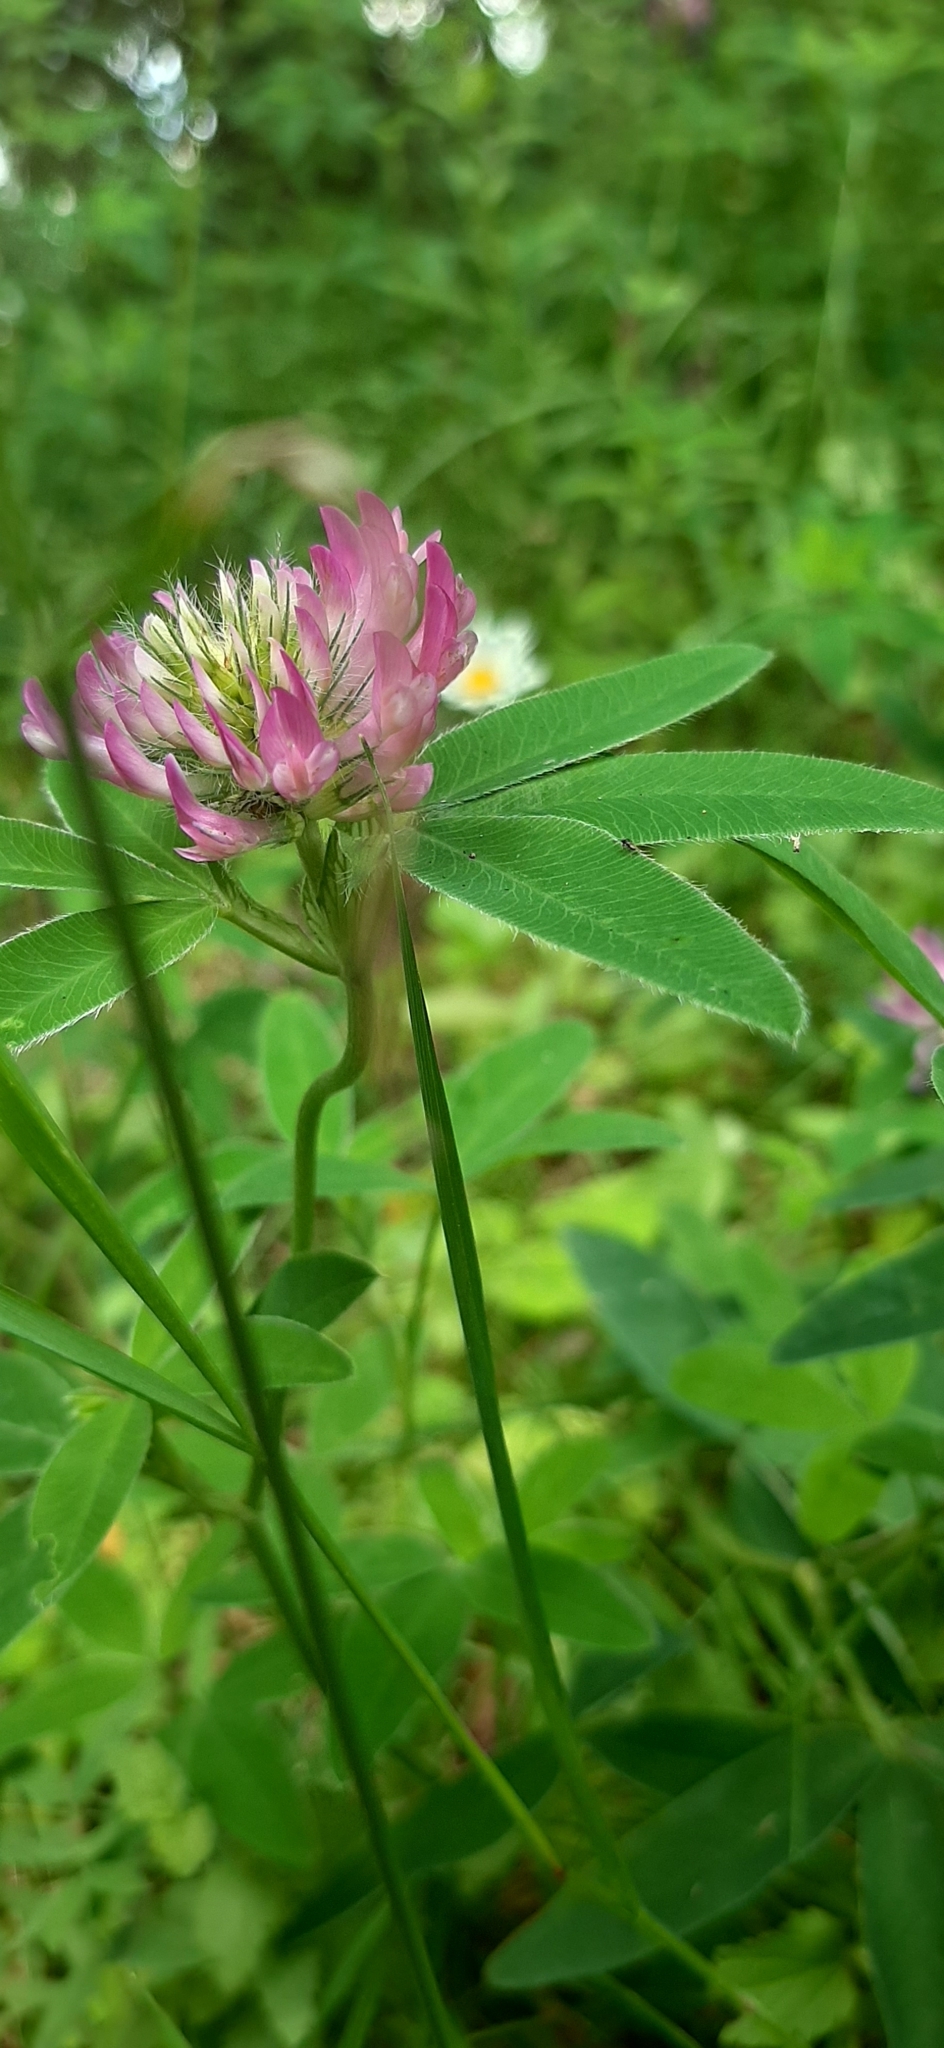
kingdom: Plantae
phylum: Tracheophyta
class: Magnoliopsida
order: Fabales
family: Fabaceae
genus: Trifolium
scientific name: Trifolium medium
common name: Zigzag clover
